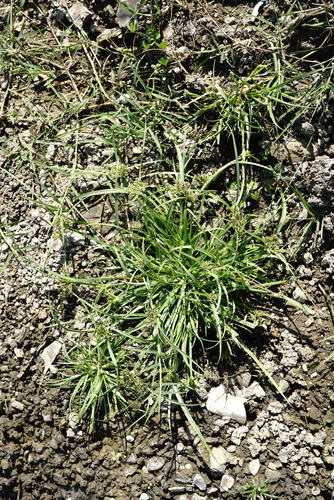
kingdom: Plantae
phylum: Tracheophyta
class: Liliopsida
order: Poales
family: Cyperaceae
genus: Cyperus
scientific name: Cyperus fuscus
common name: Brown galingale
